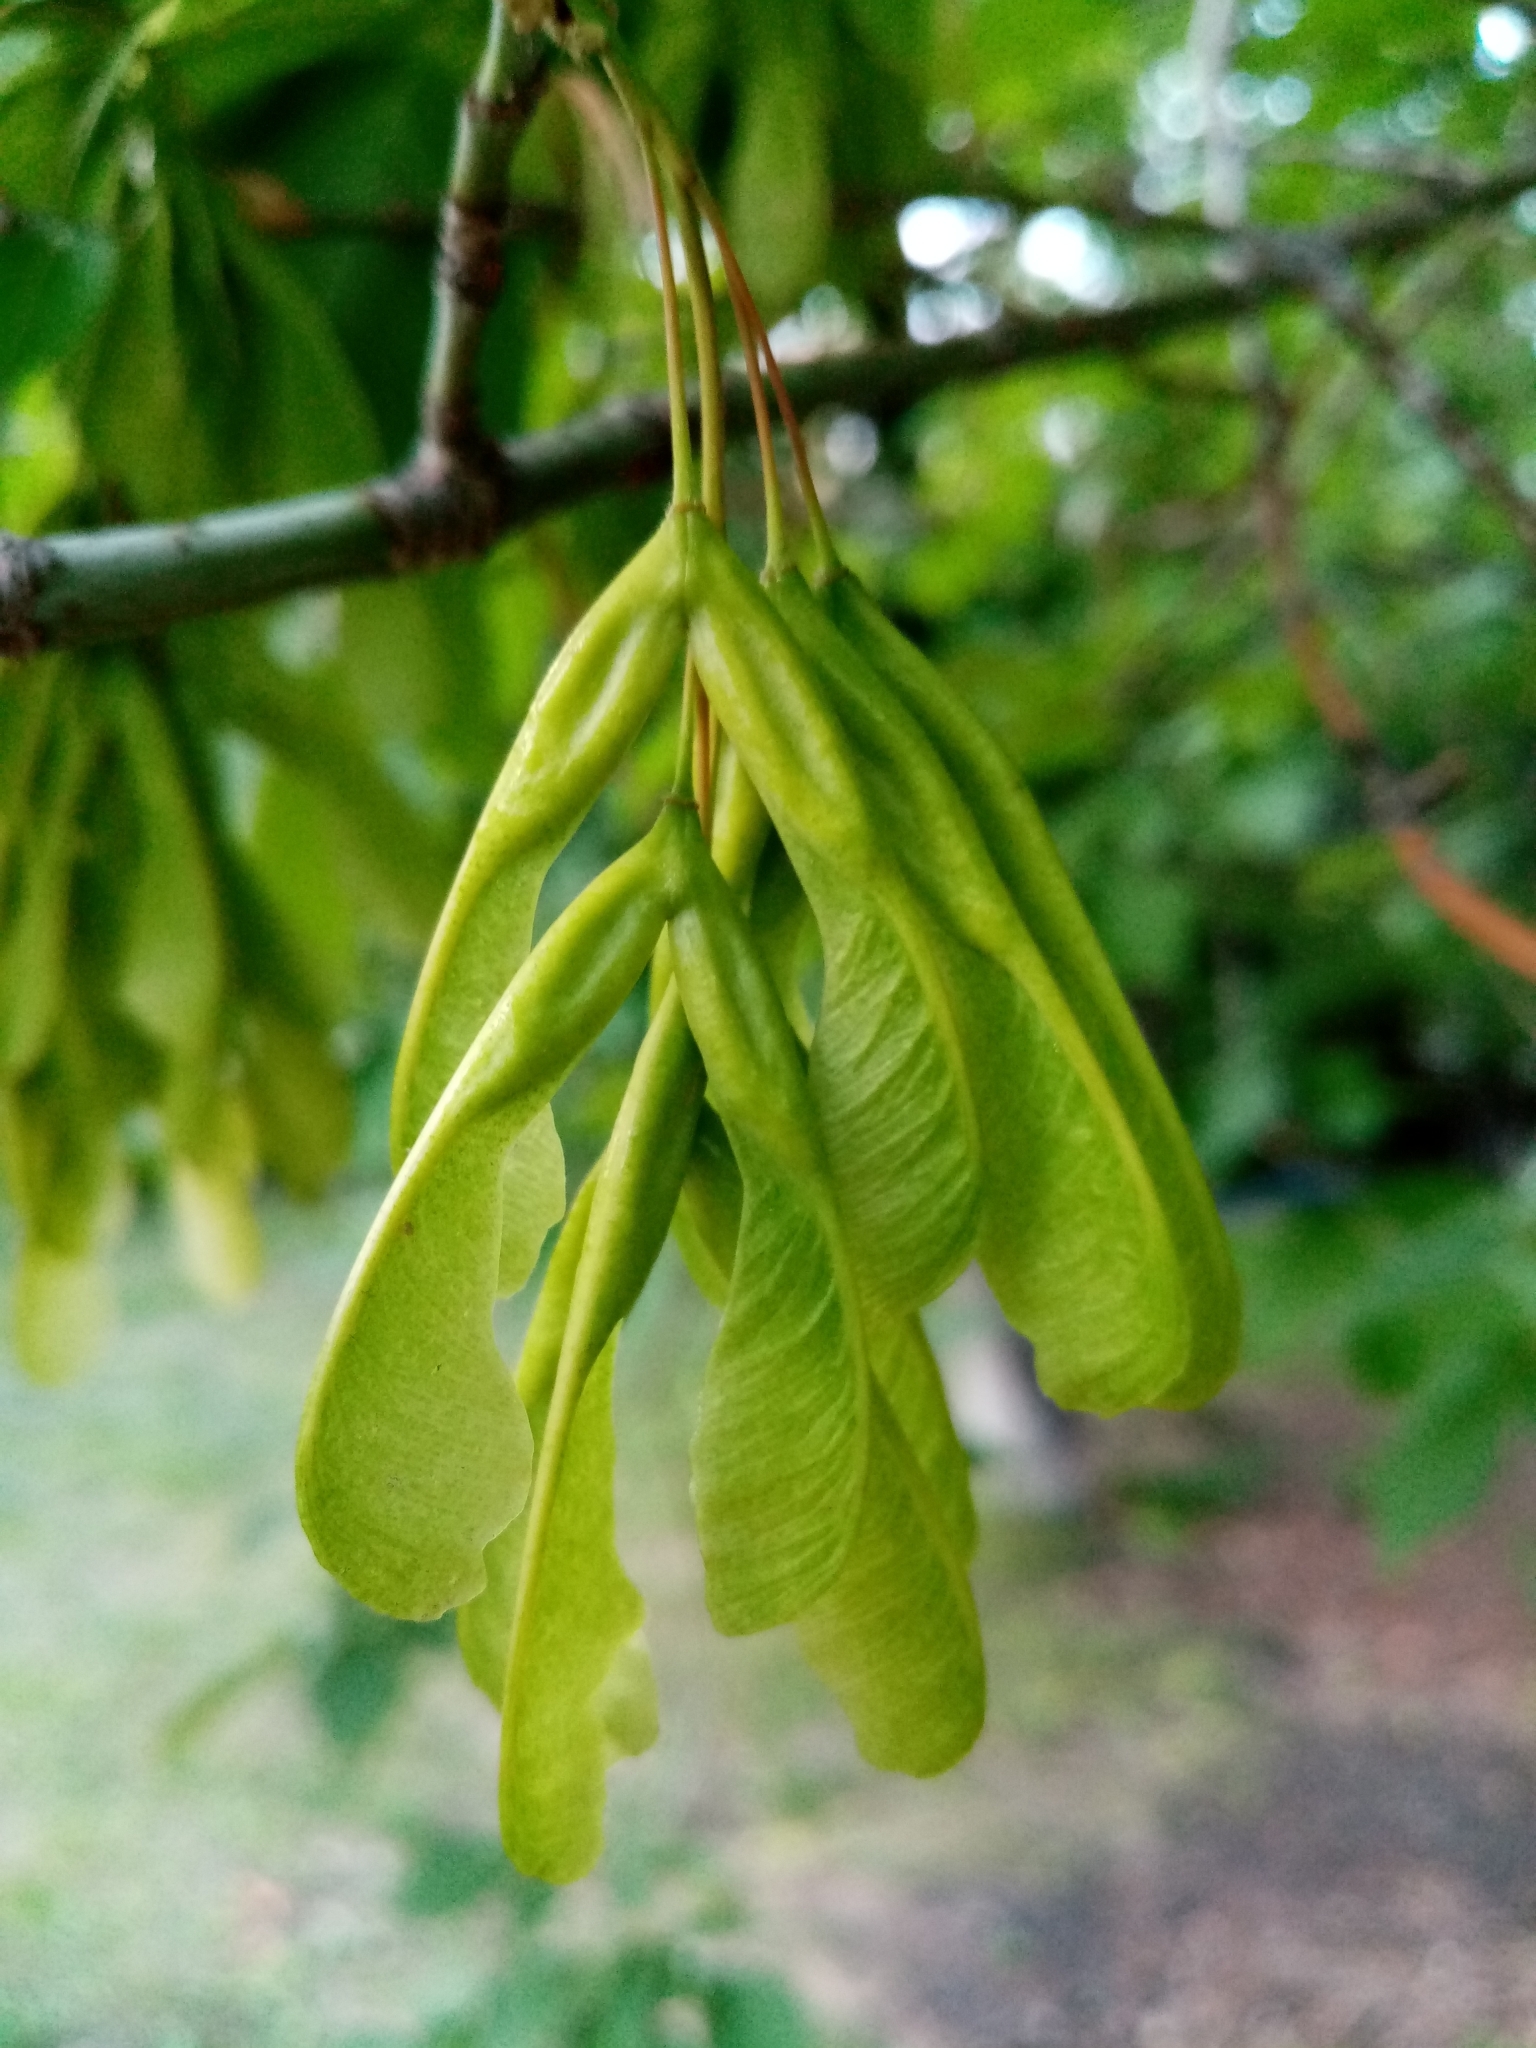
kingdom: Plantae
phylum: Tracheophyta
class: Magnoliopsida
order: Sapindales
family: Sapindaceae
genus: Acer
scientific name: Acer negundo
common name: Ashleaf maple
